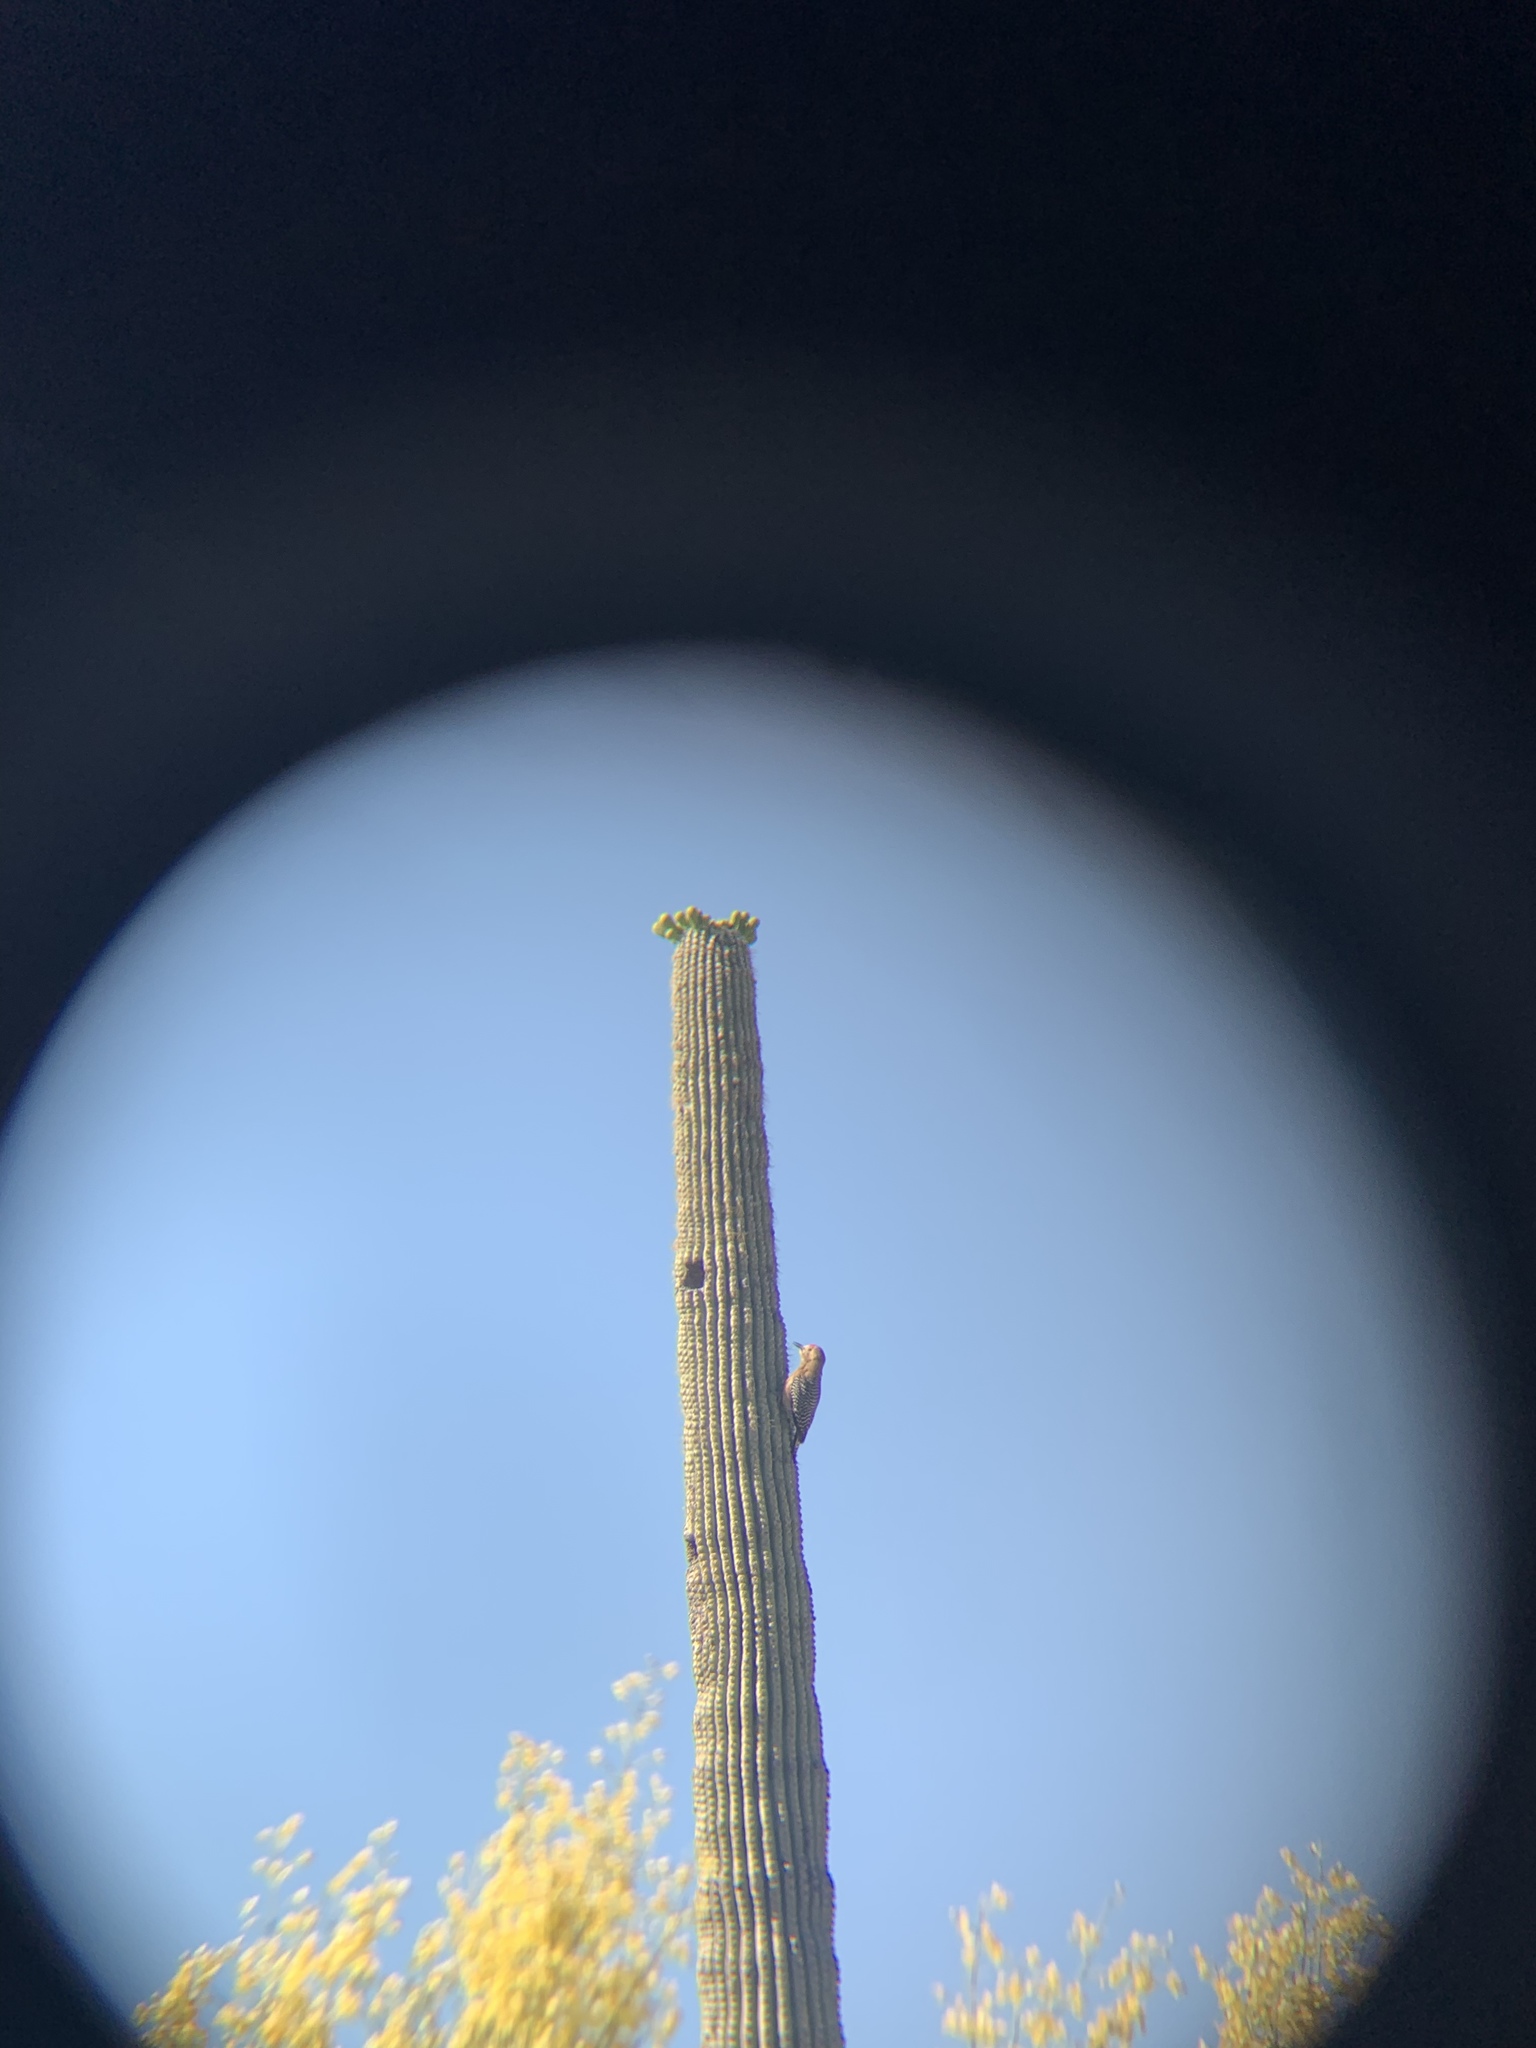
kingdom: Animalia
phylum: Chordata
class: Aves
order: Piciformes
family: Picidae
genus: Melanerpes
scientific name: Melanerpes uropygialis
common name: Gila woodpecker
